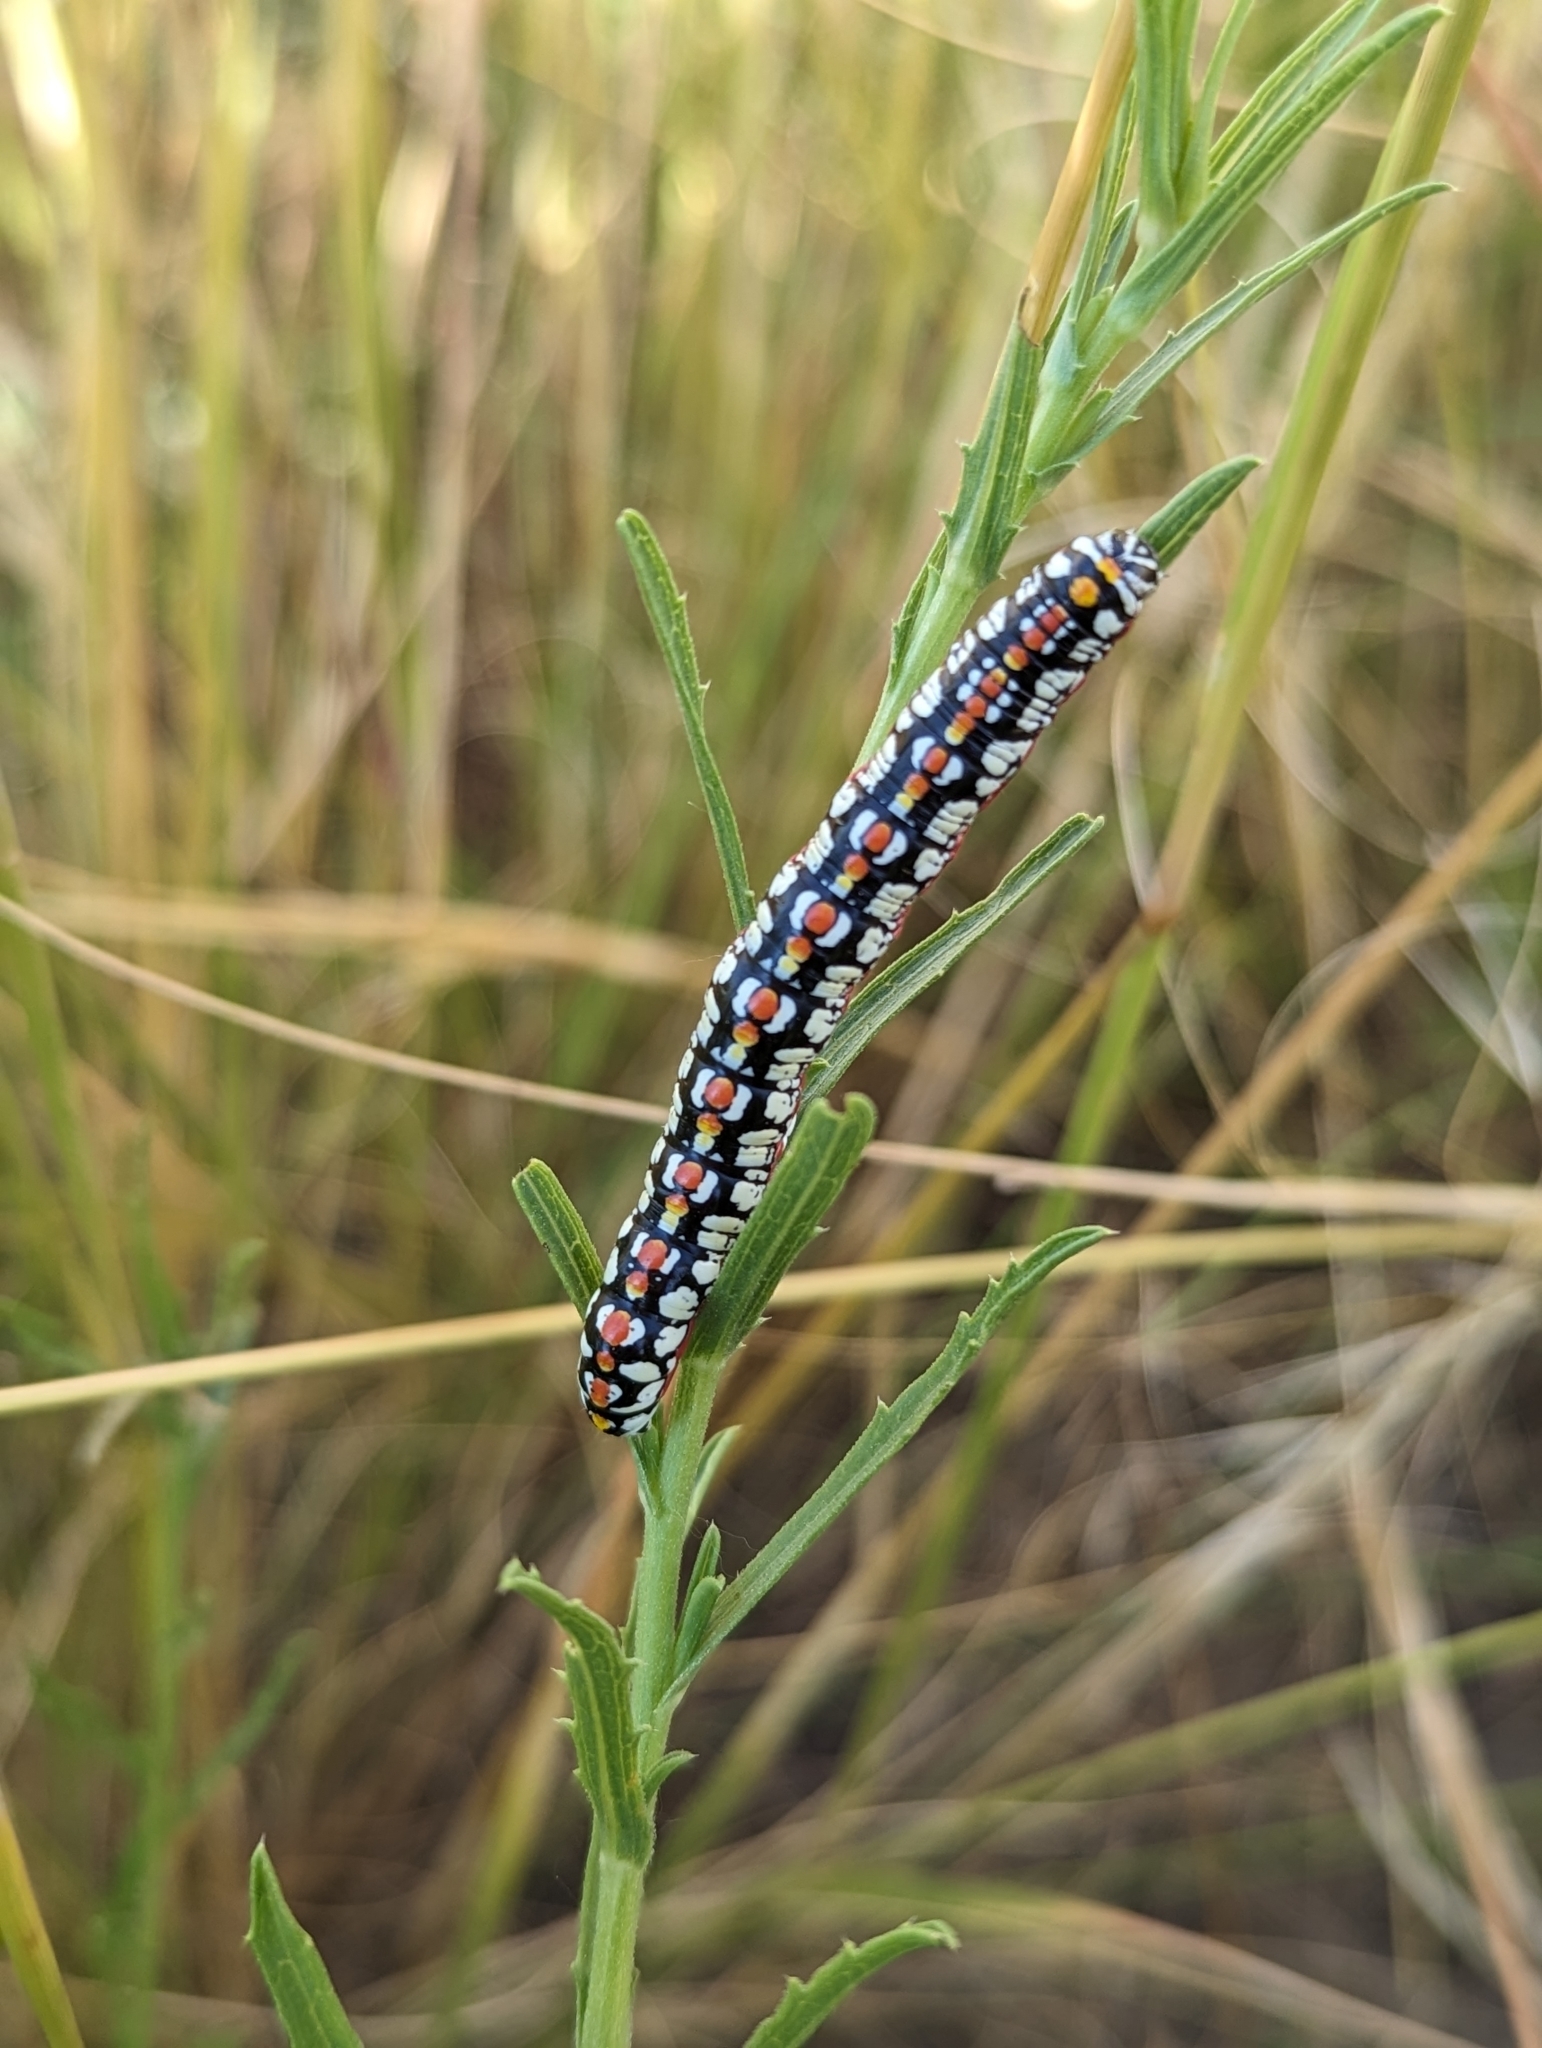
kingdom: Animalia
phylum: Arthropoda
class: Insecta
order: Lepidoptera
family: Noctuidae
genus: Cucullia
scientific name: Cucullia dorsalis
